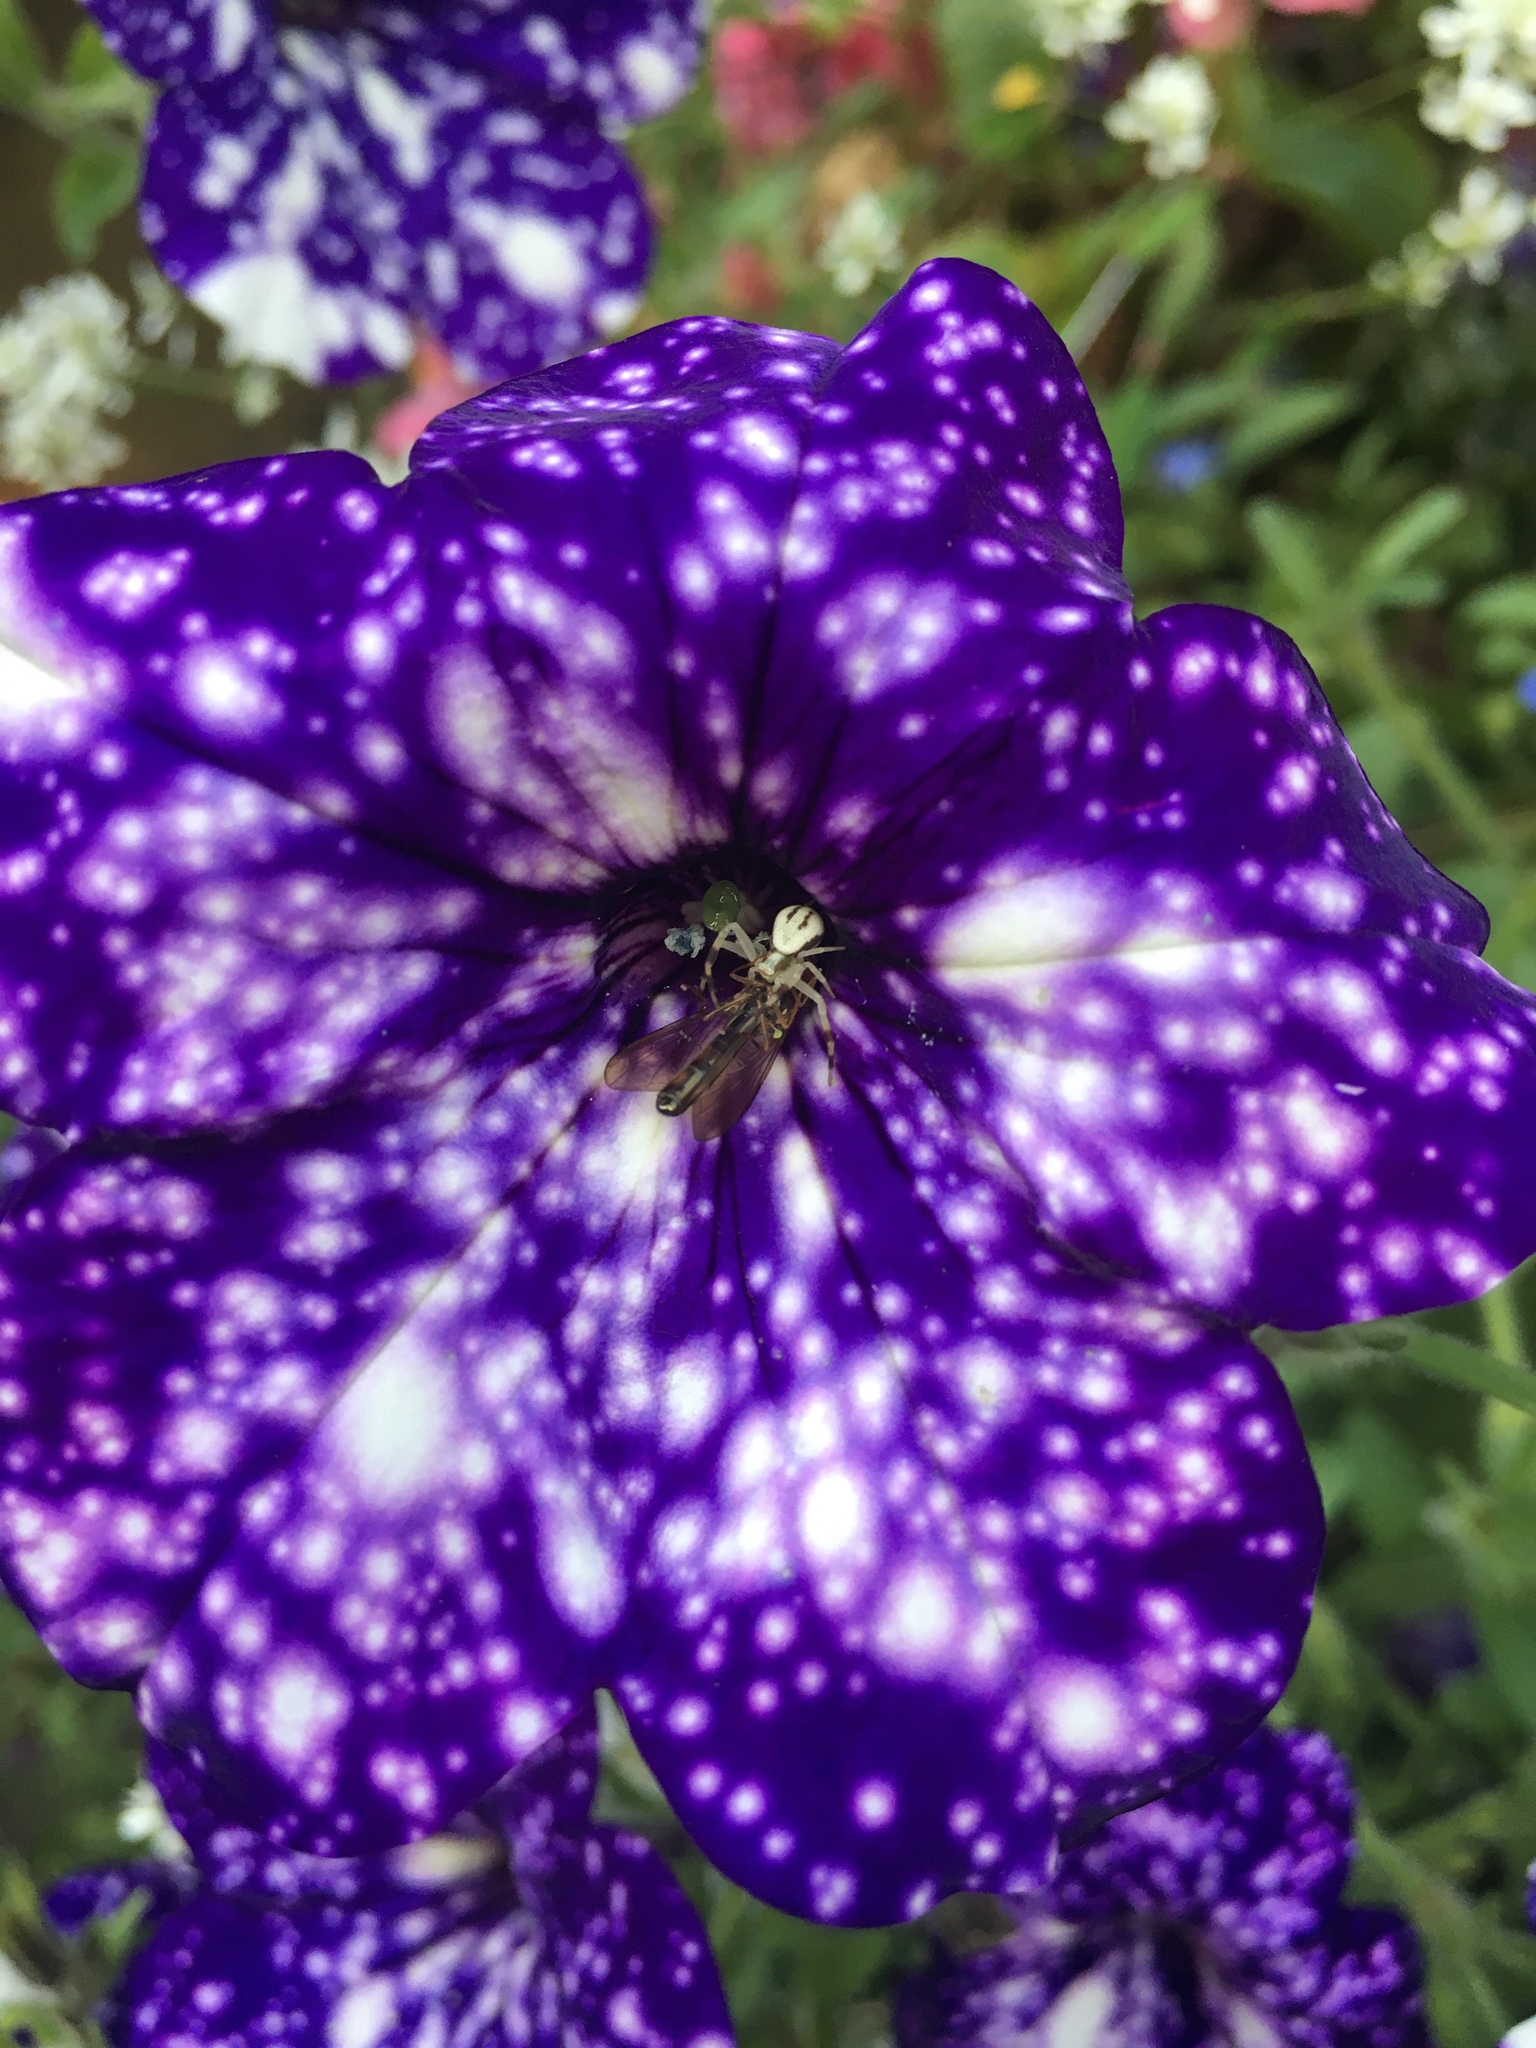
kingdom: Animalia
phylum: Arthropoda
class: Arachnida
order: Araneae
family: Thomisidae
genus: Misumena
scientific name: Misumena vatia
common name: Goldenrod crab spider
